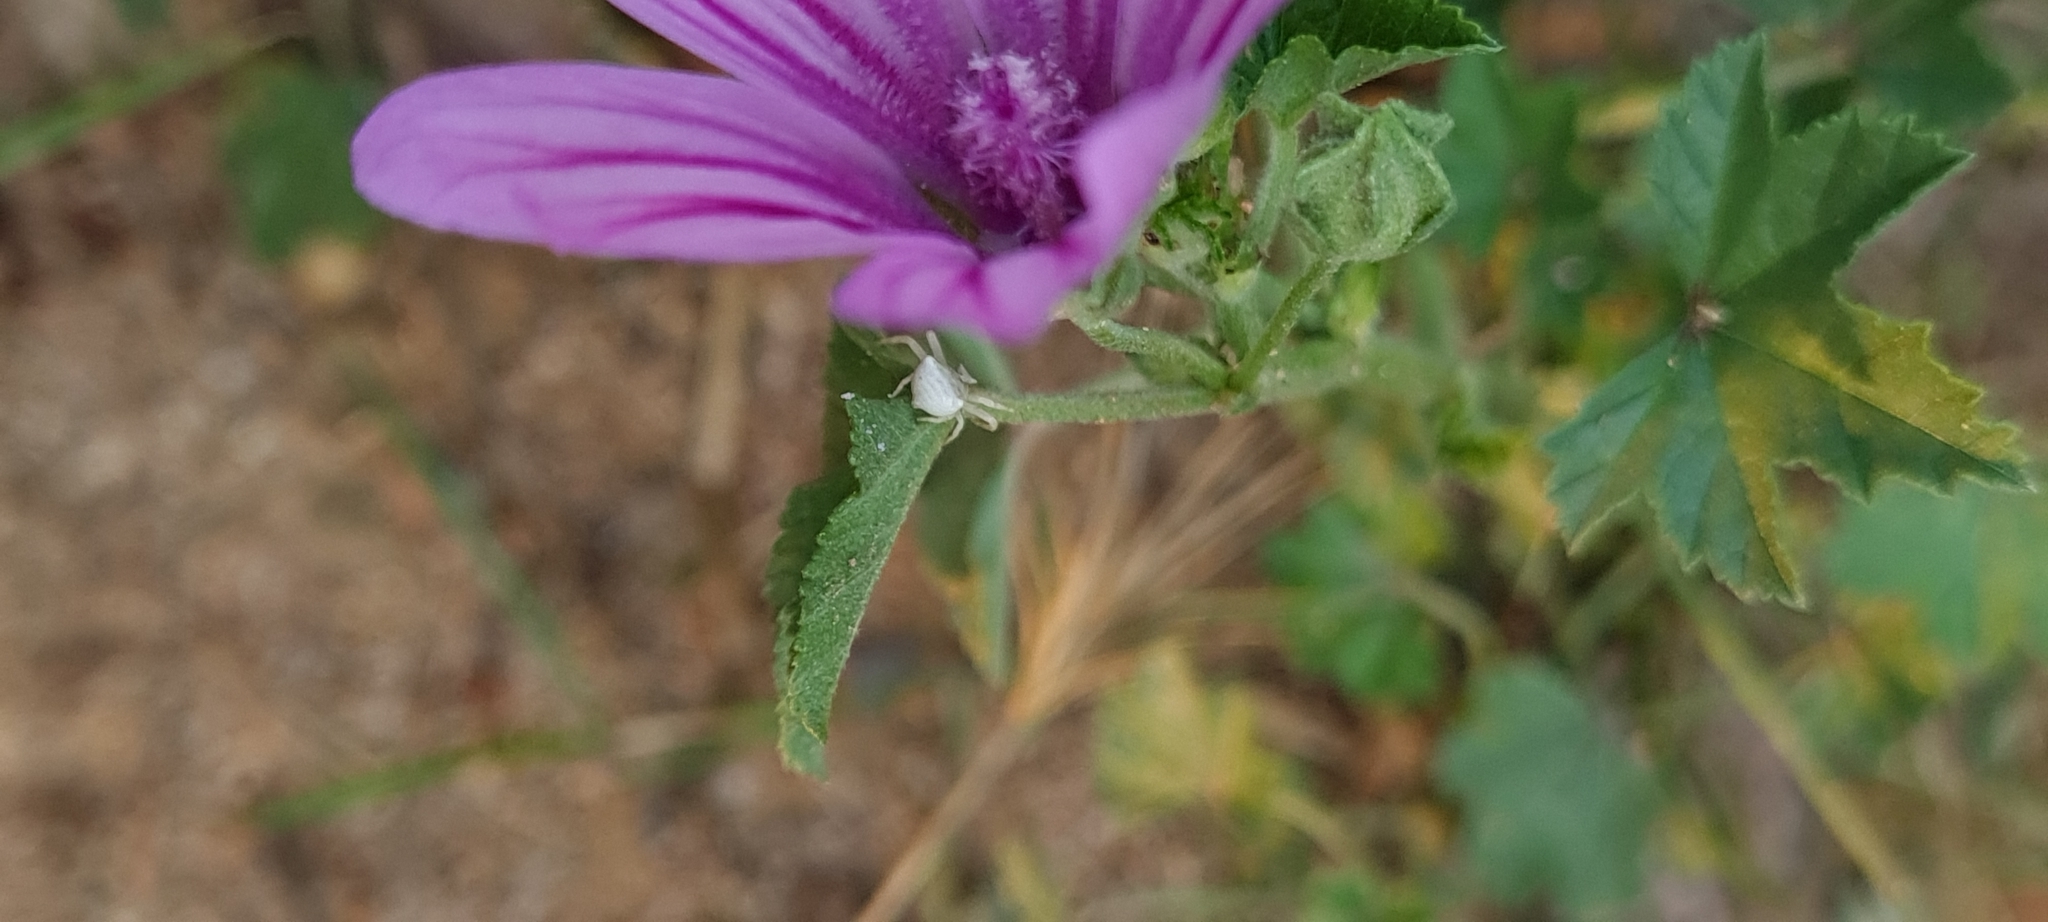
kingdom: Animalia
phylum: Arthropoda
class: Arachnida
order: Araneae
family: Thomisidae
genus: Thomisus
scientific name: Thomisus onustus
